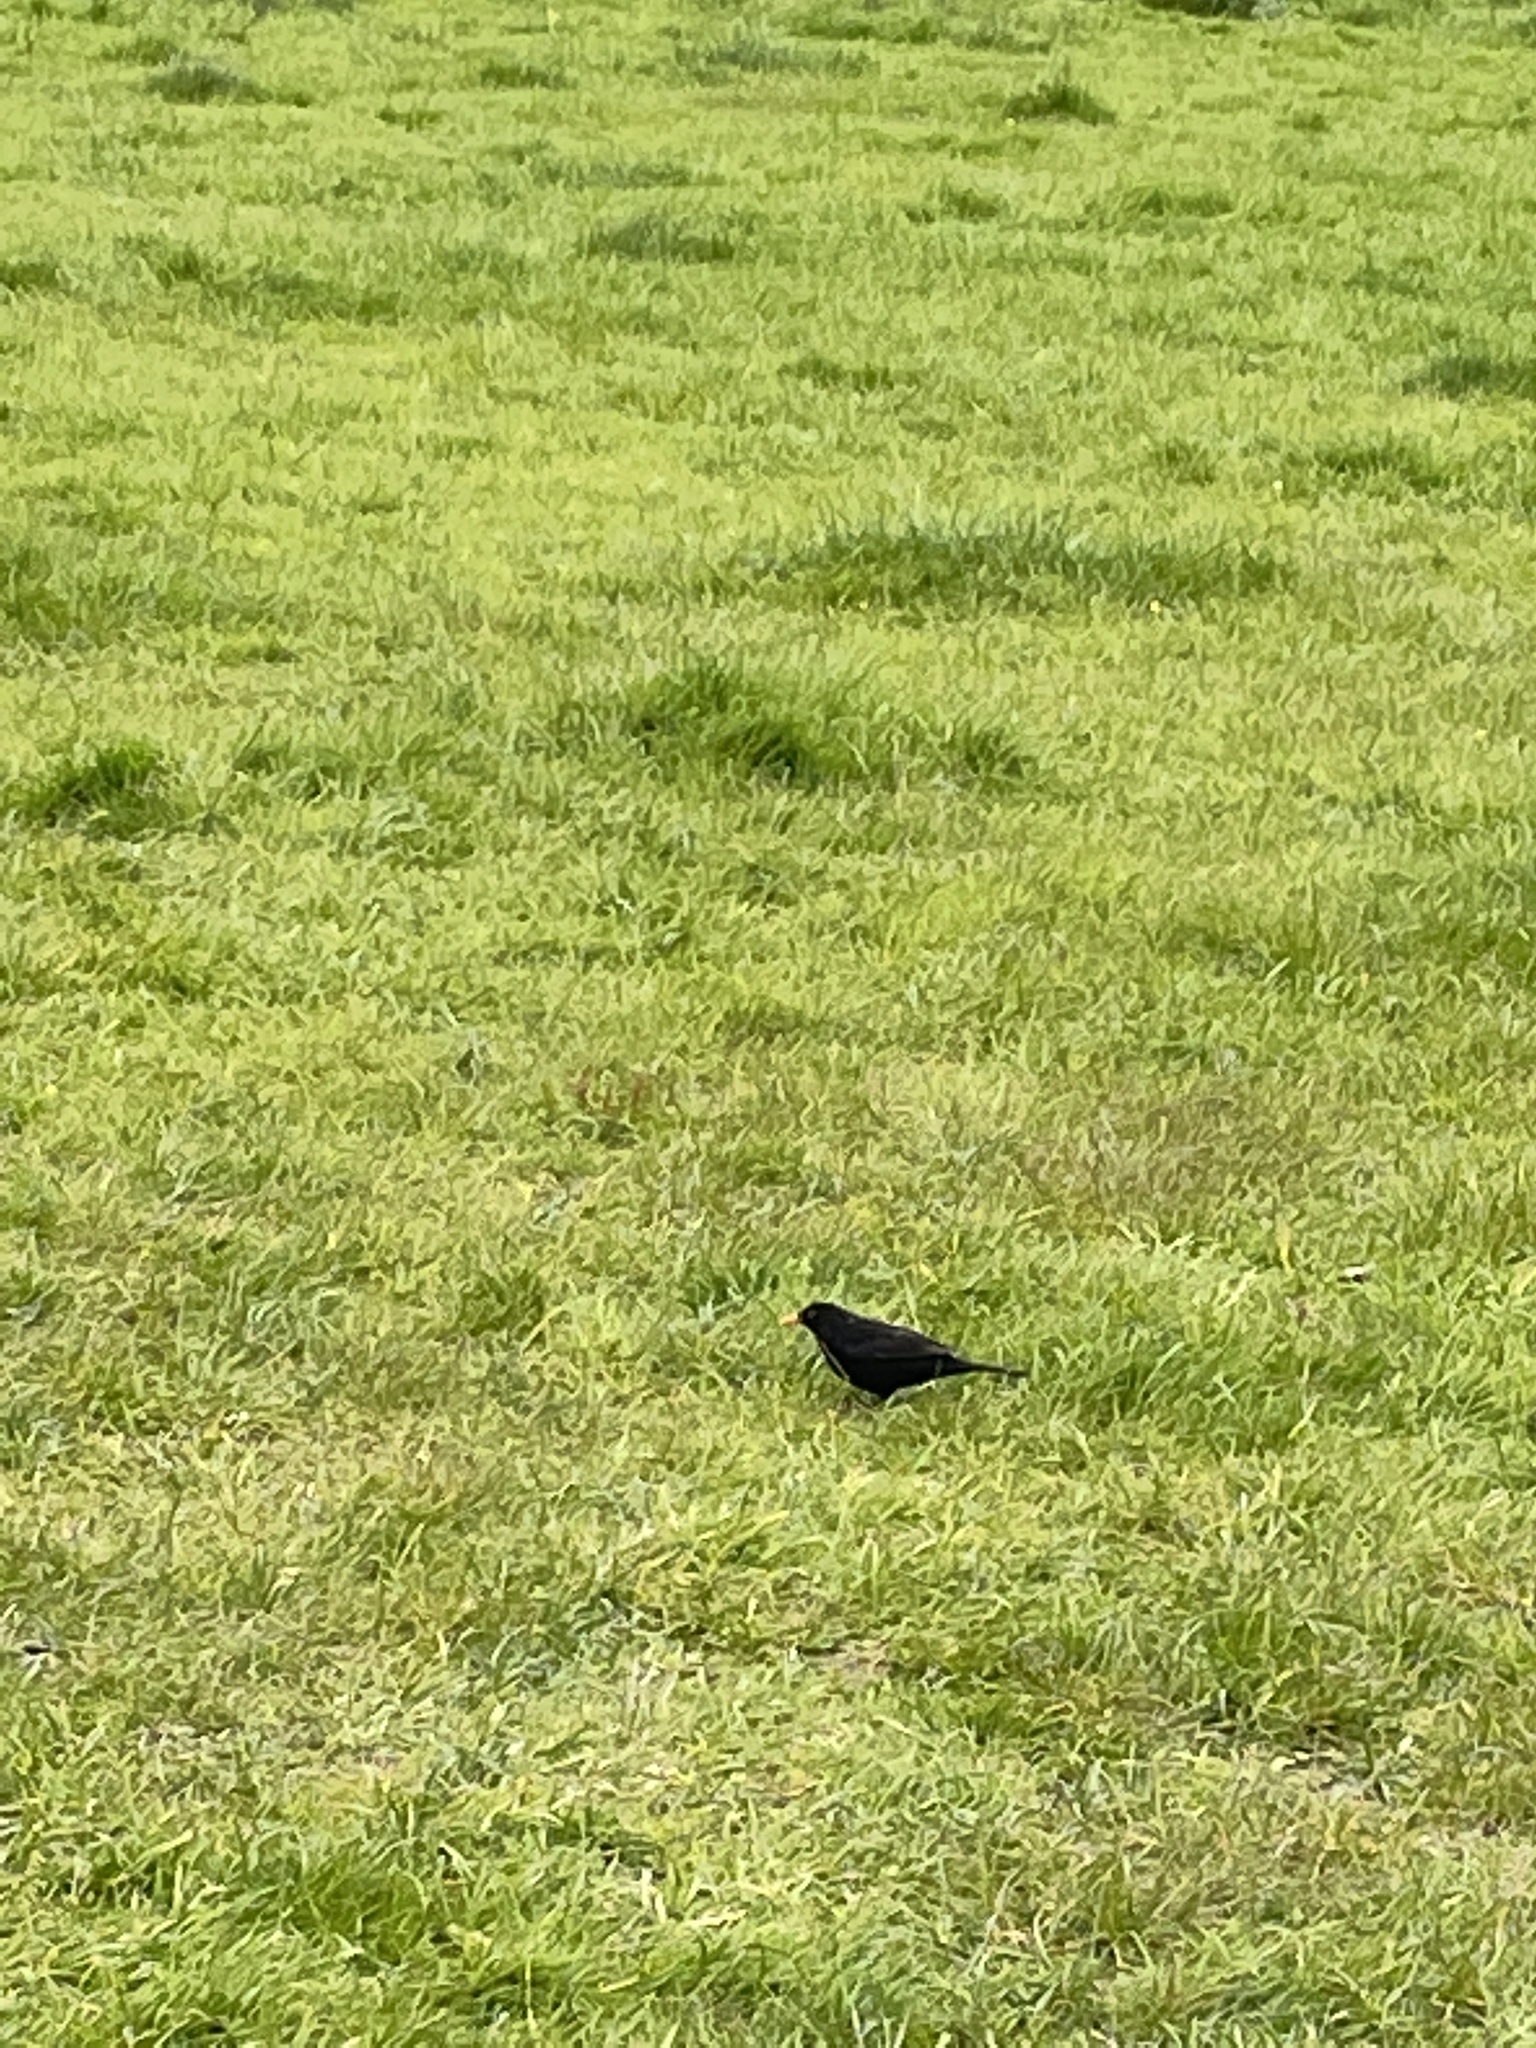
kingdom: Animalia
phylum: Chordata
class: Aves
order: Passeriformes
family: Turdidae
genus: Turdus
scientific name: Turdus merula
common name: Common blackbird
